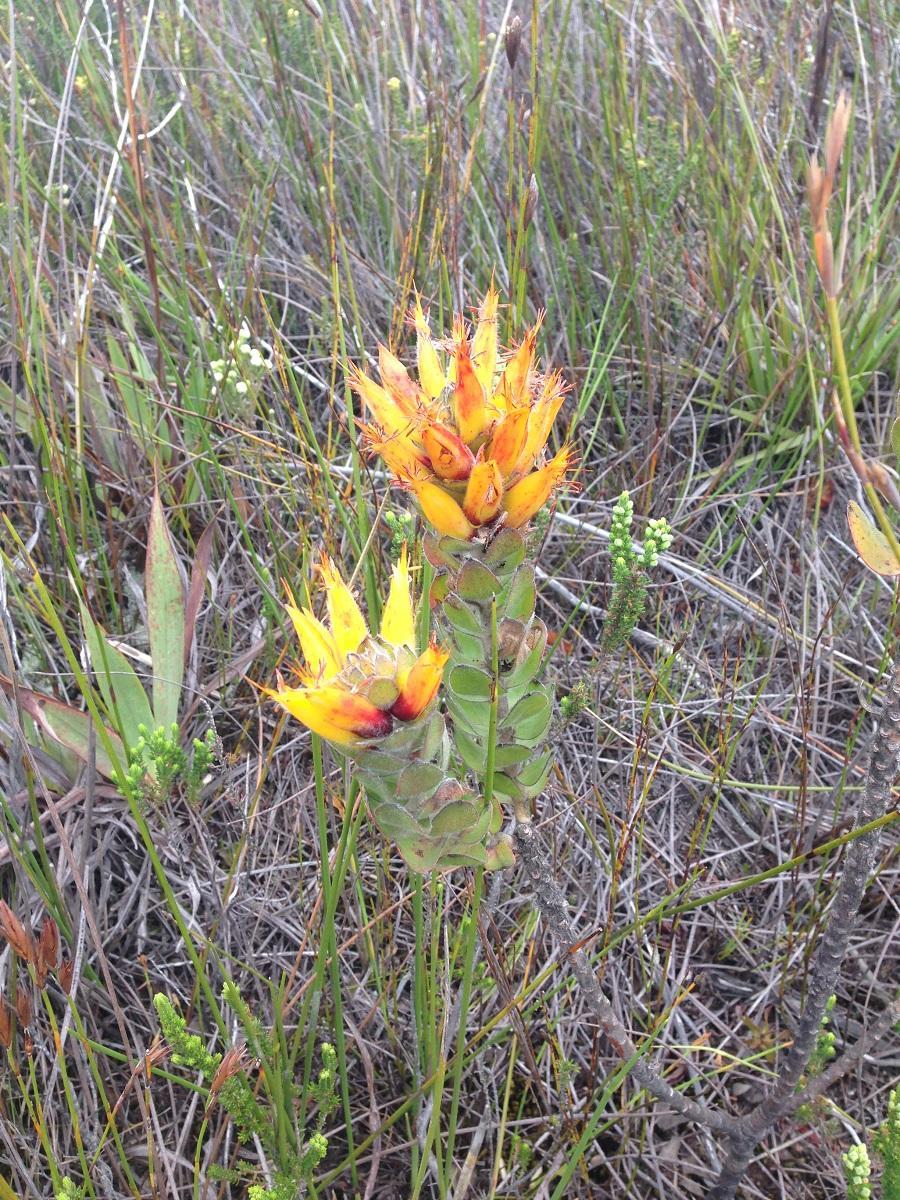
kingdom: Plantae
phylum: Tracheophyta
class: Magnoliopsida
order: Proteales
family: Proteaceae
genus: Mimetes
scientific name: Mimetes pauciflora
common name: Three-flowered pagoda
